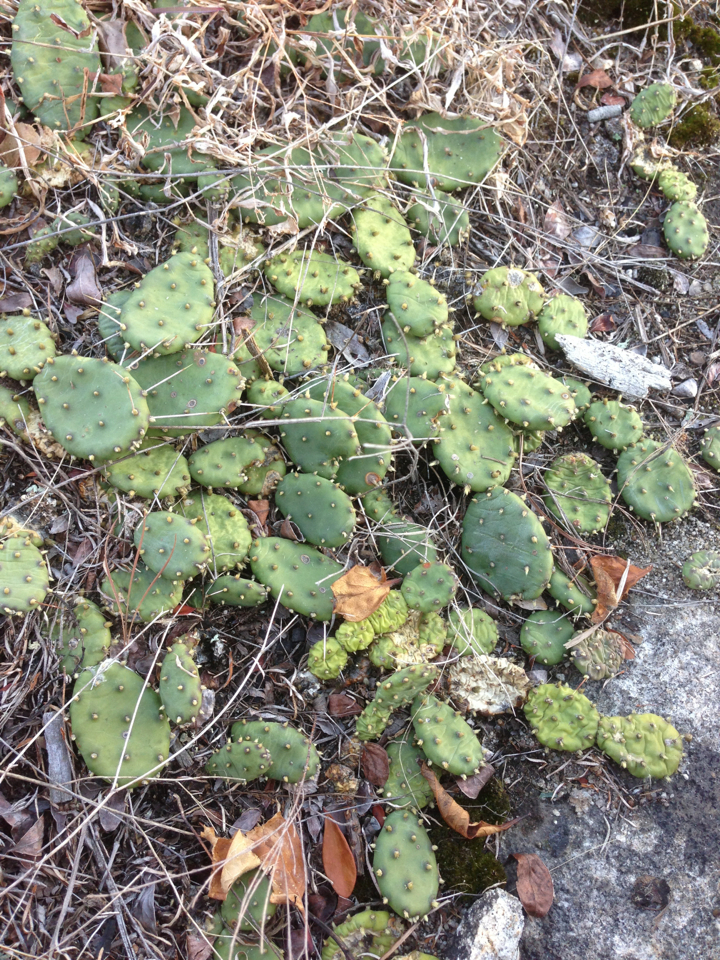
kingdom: Plantae
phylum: Tracheophyta
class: Magnoliopsida
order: Caryophyllales
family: Cactaceae
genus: Opuntia
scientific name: Opuntia
